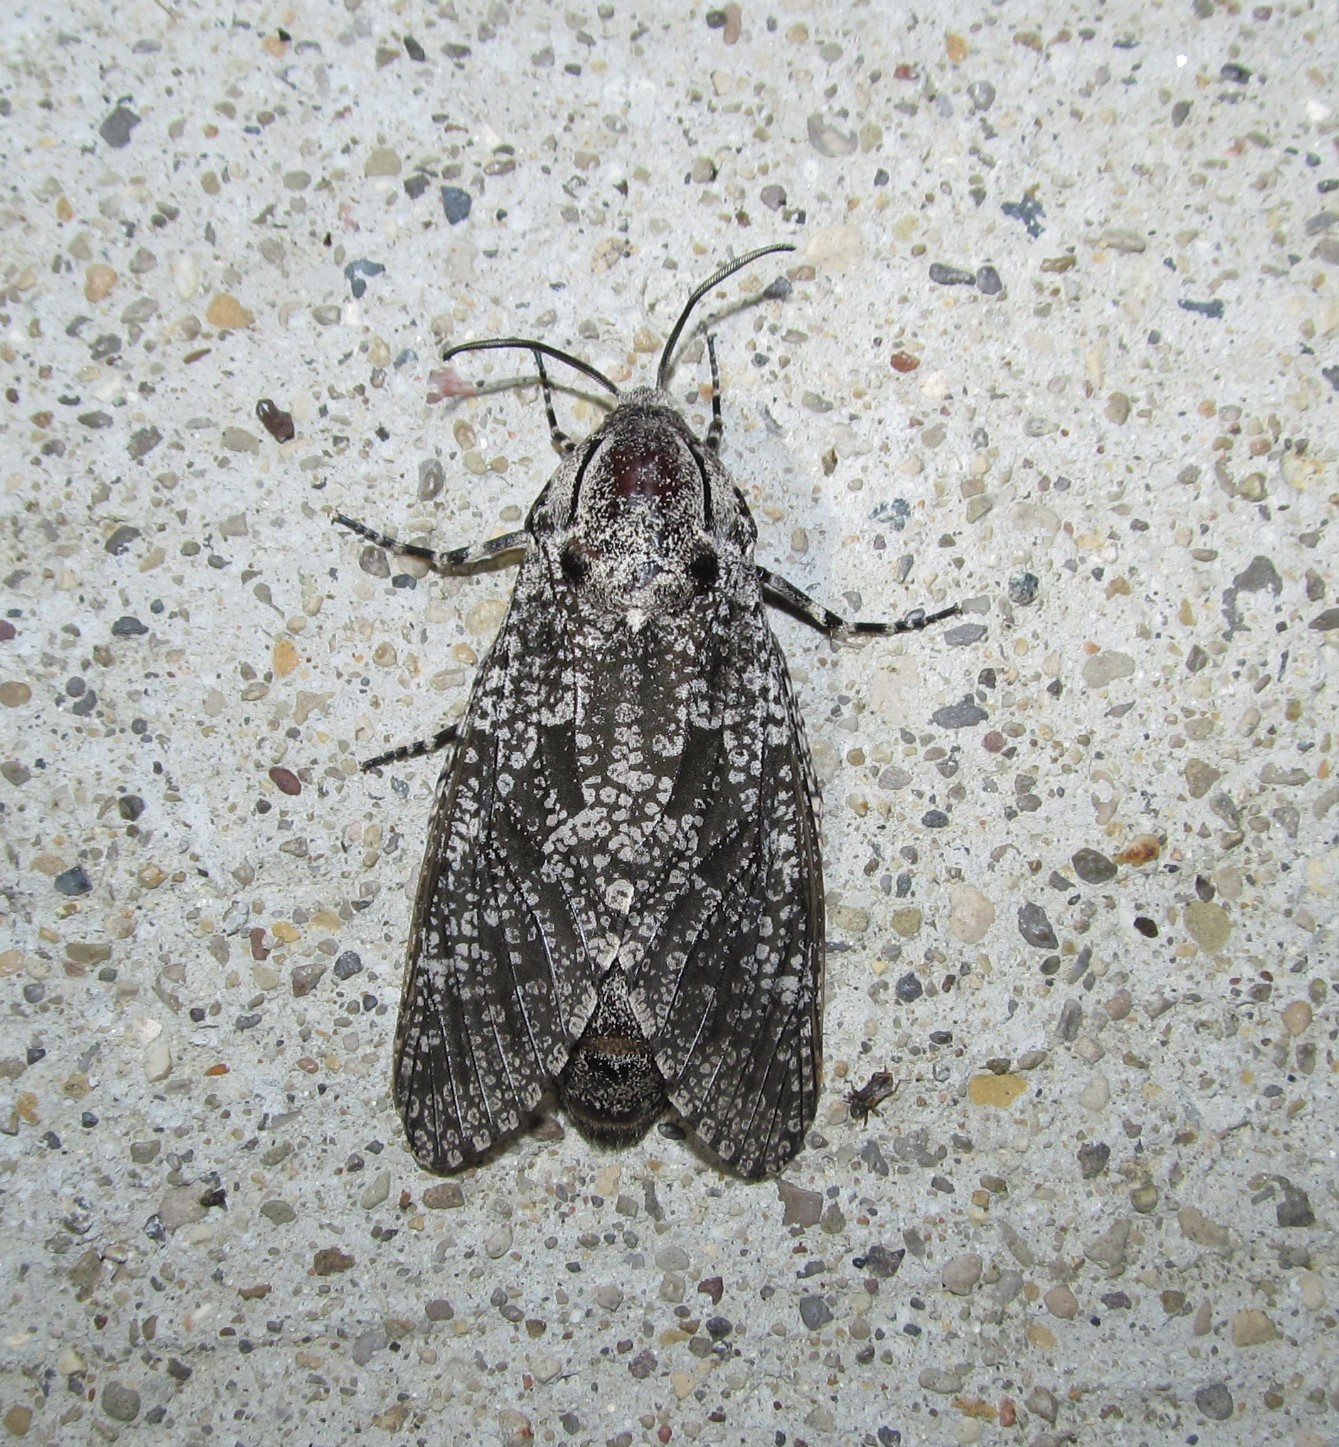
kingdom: Animalia
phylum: Arthropoda
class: Insecta
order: Lepidoptera
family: Cossidae
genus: Prionoxystus
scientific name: Prionoxystus robiniae
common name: Carpenterworm
